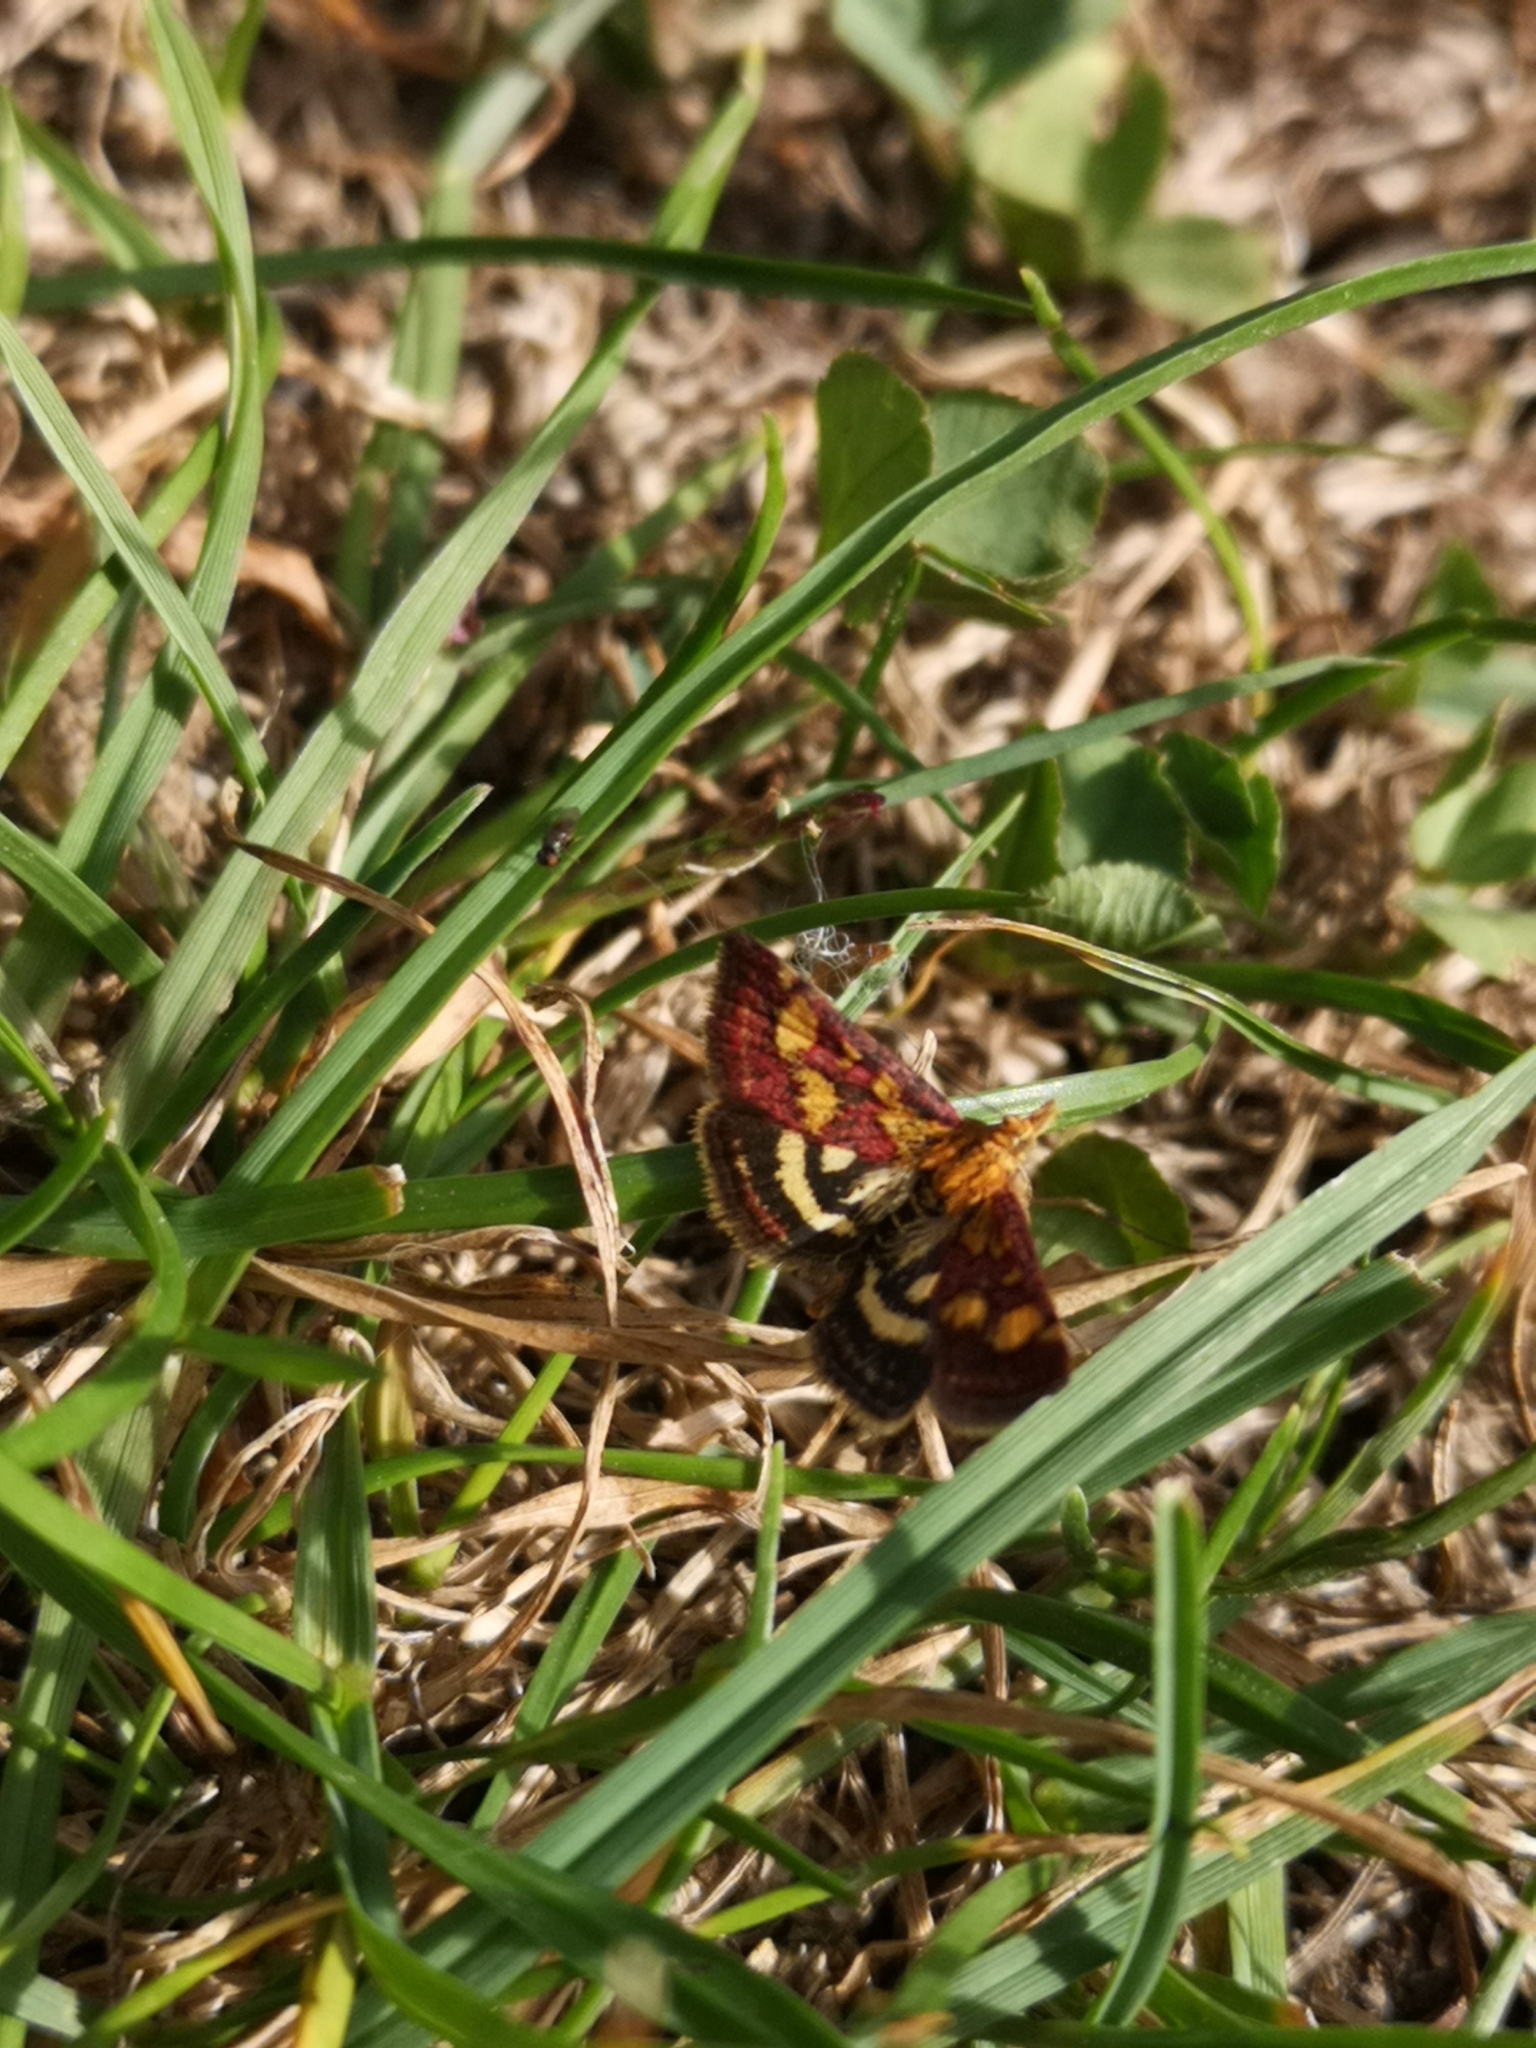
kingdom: Animalia
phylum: Arthropoda
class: Insecta
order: Lepidoptera
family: Crambidae
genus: Pyrausta
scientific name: Pyrausta purpuralis
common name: Common purple & gold
